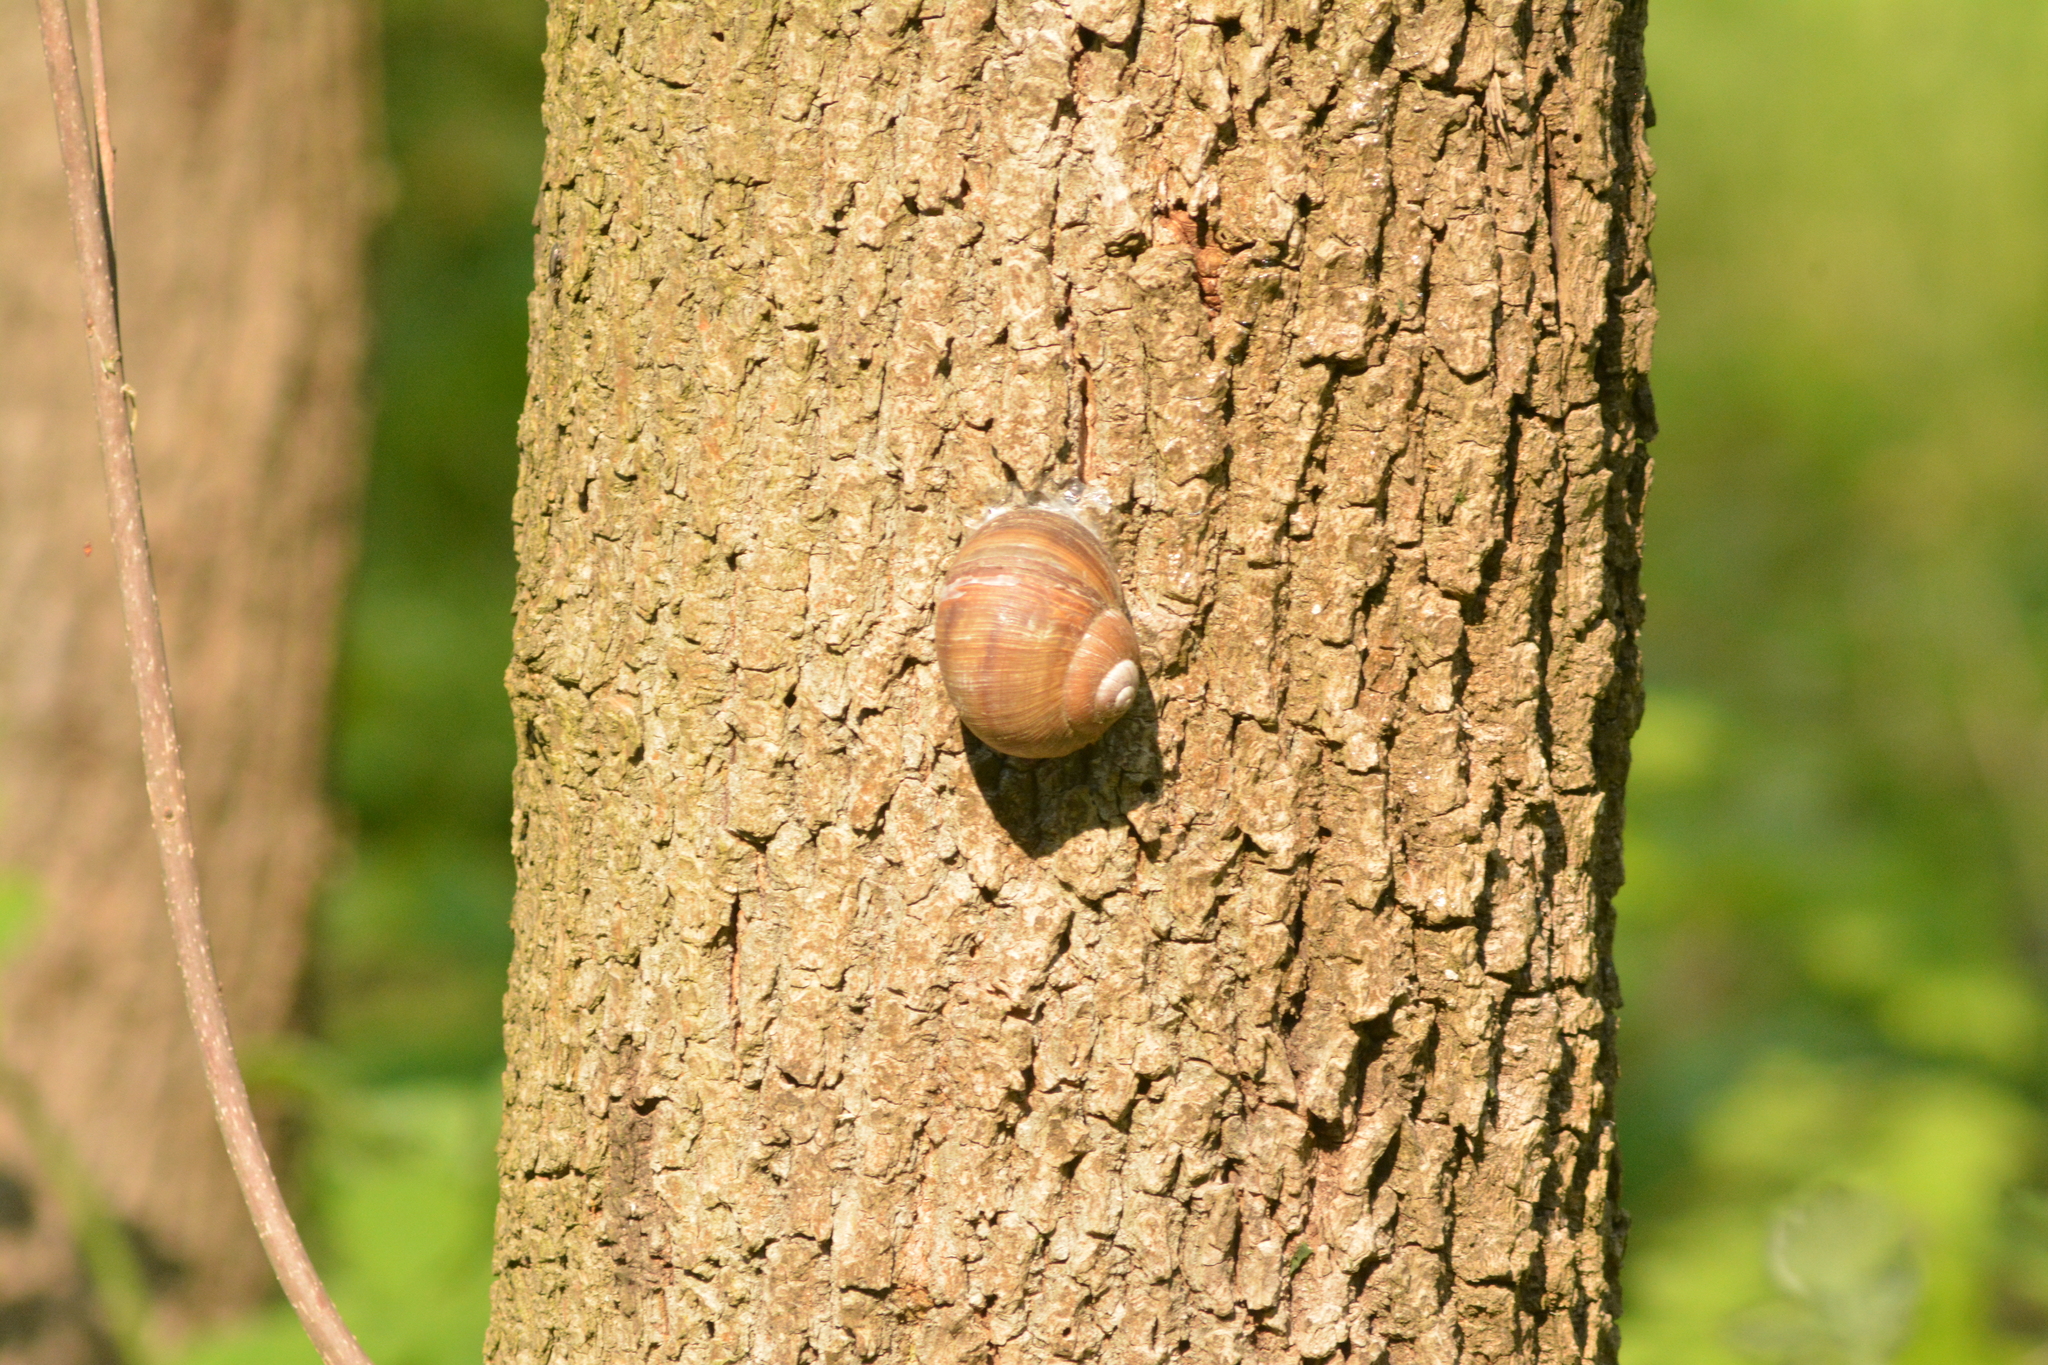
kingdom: Animalia
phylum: Mollusca
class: Gastropoda
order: Stylommatophora
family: Helicidae
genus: Helix
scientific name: Helix pomatia
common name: Roman snail
